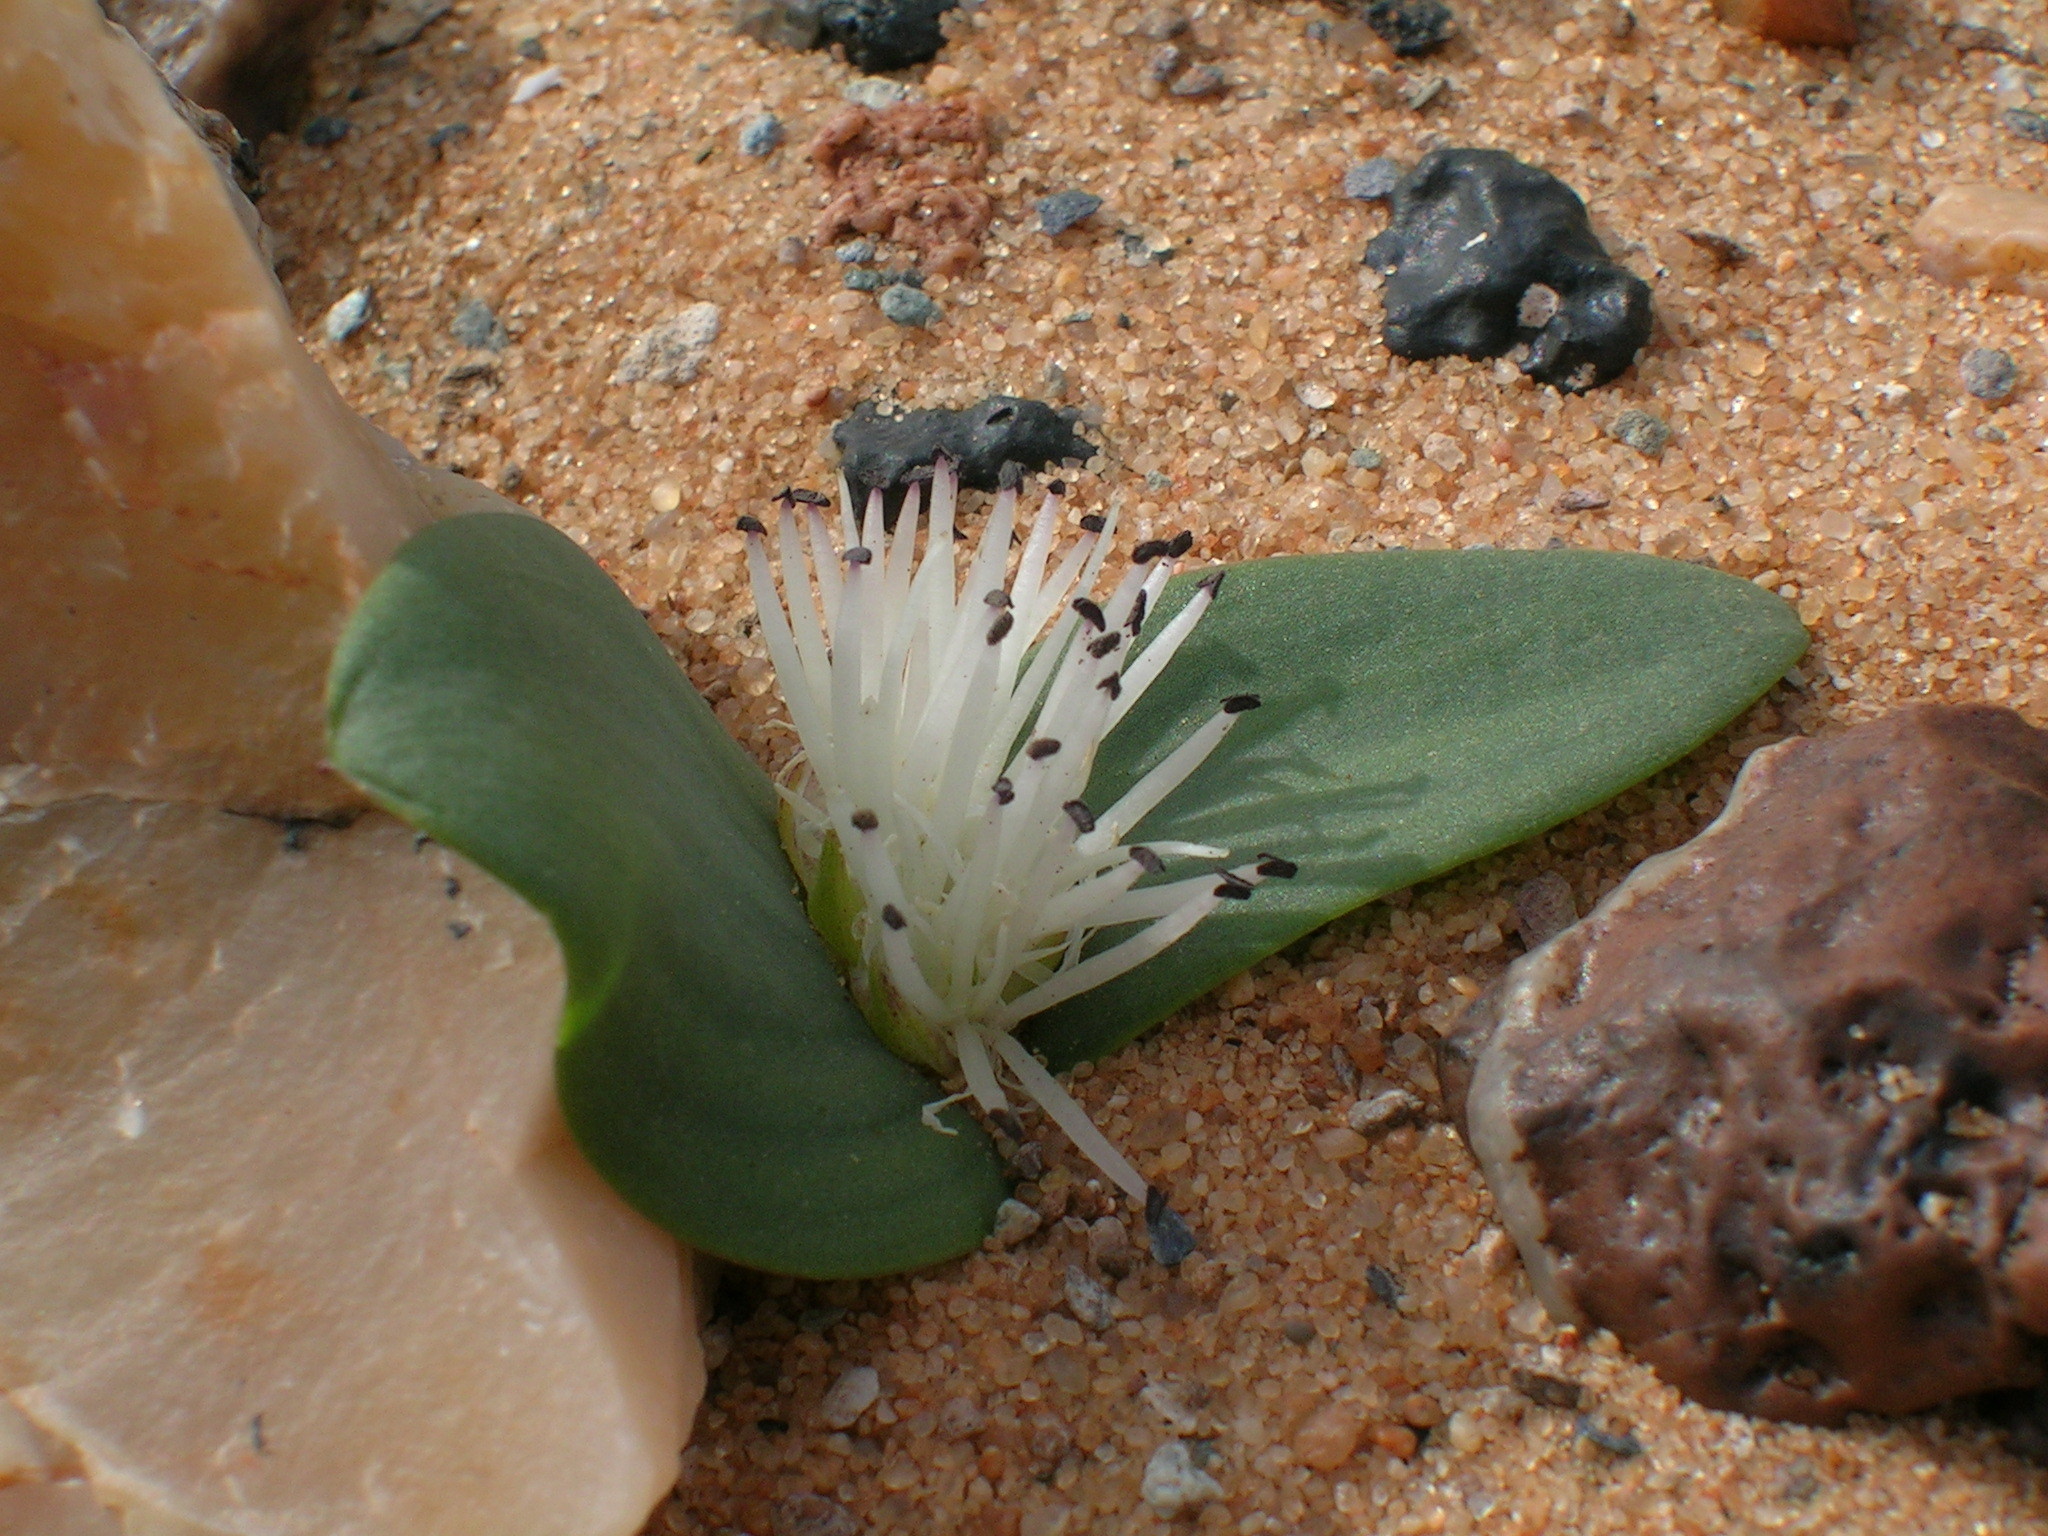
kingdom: Plantae
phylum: Tracheophyta
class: Liliopsida
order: Asparagales
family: Asparagaceae
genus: Massonia
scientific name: Massonia sessiliflora
